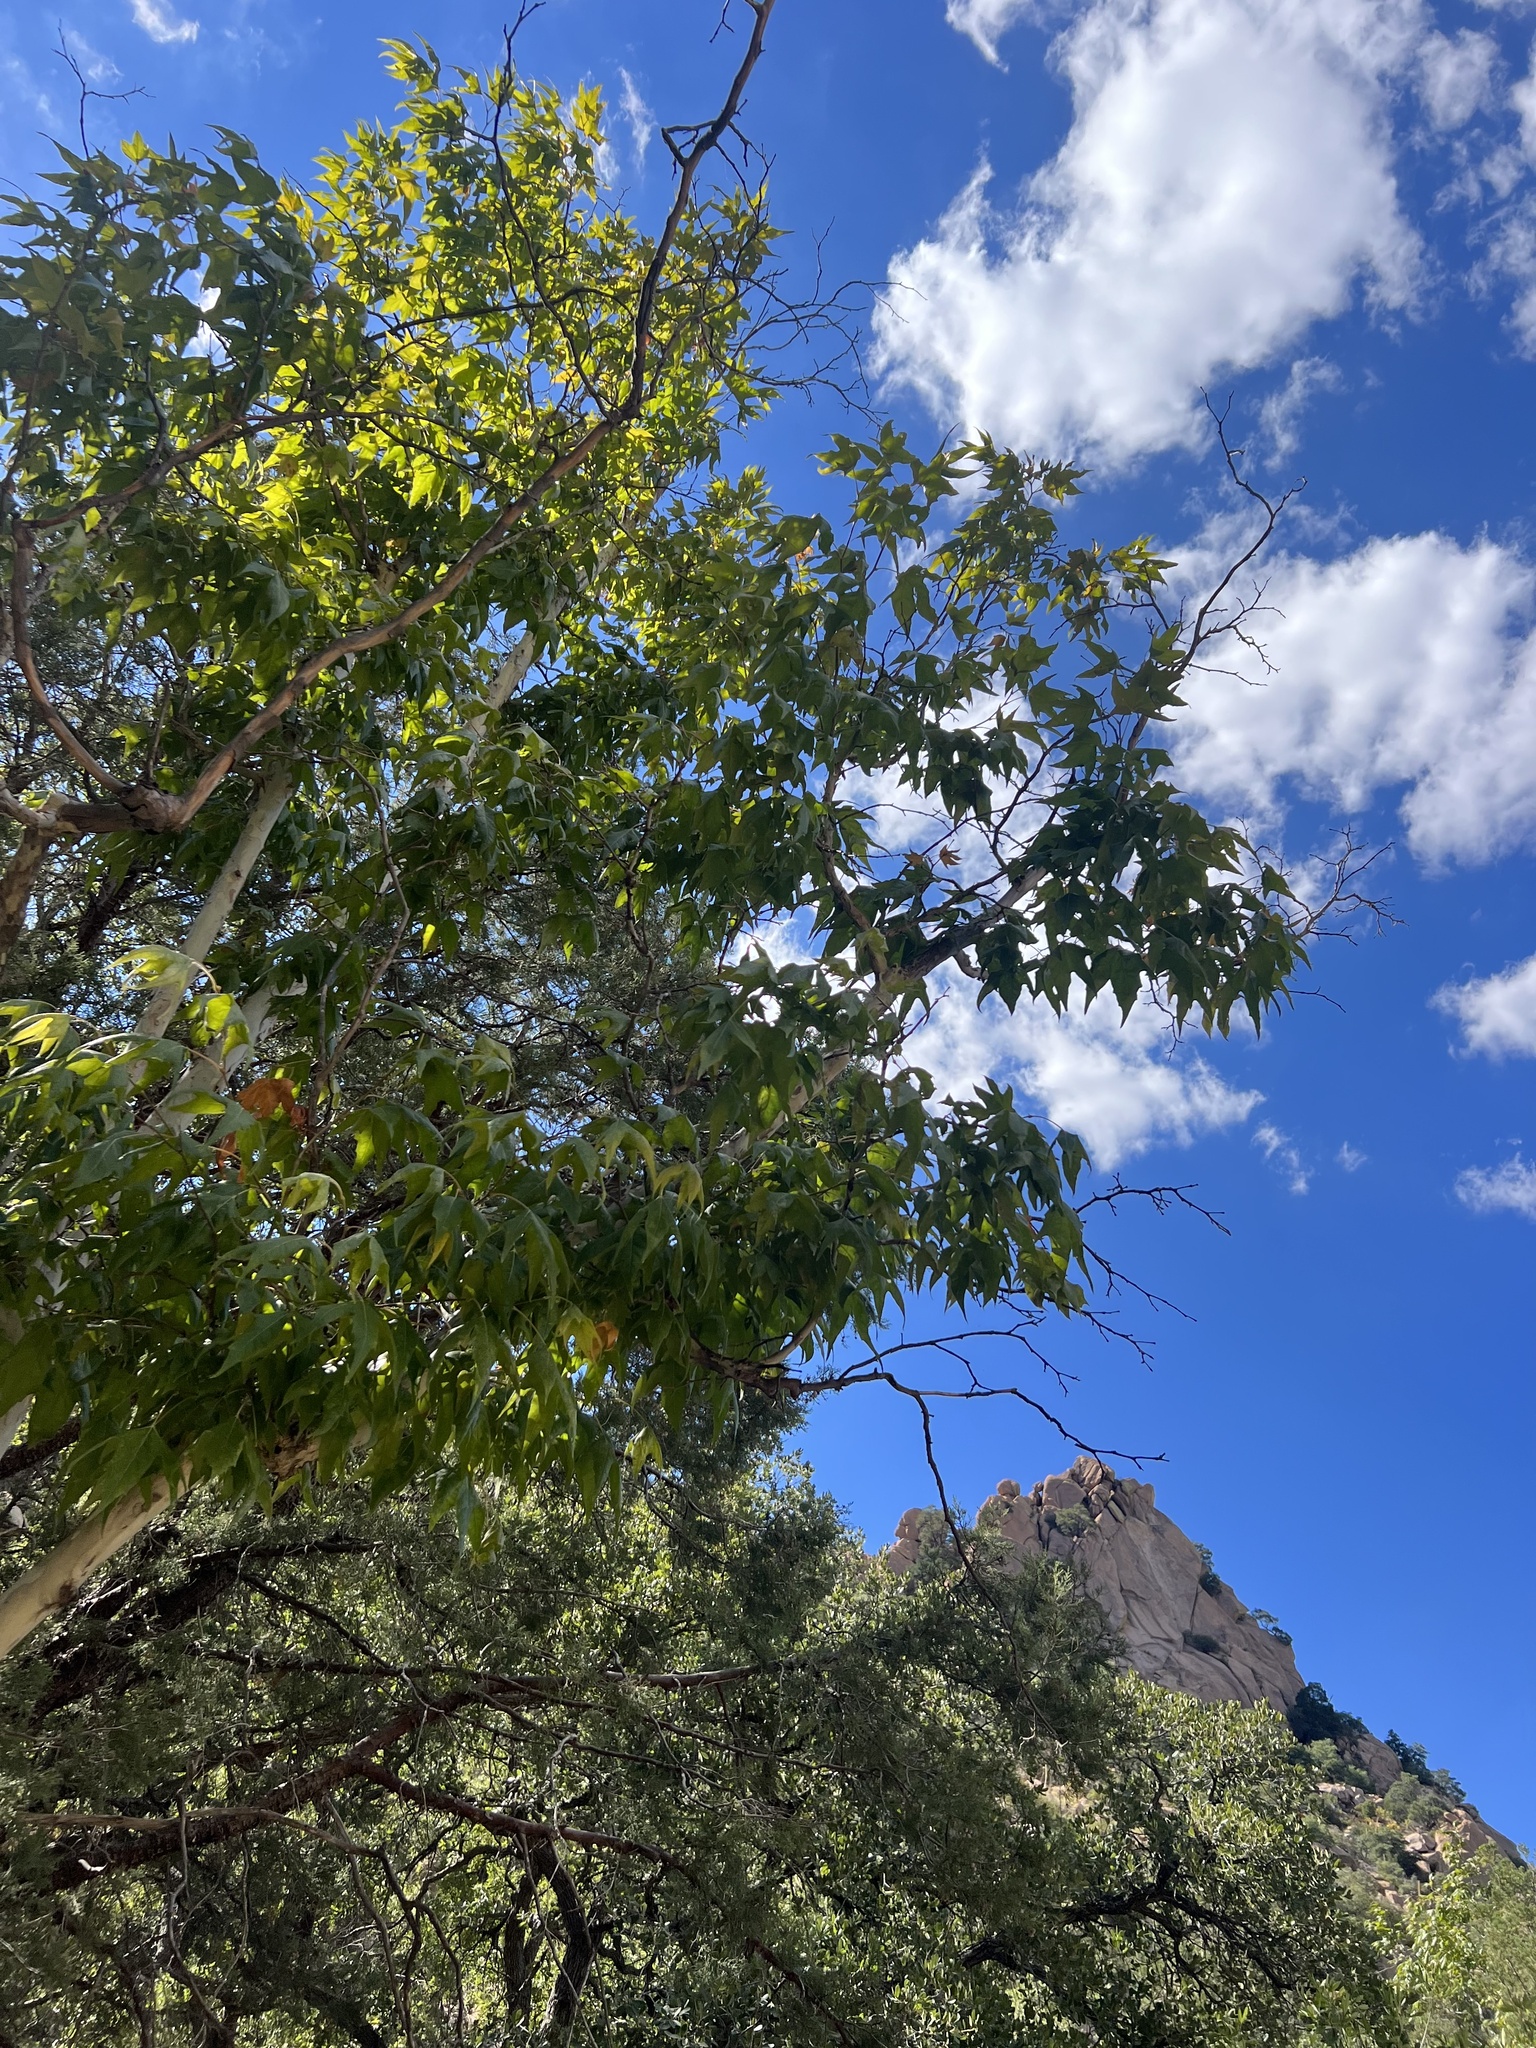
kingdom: Plantae
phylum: Tracheophyta
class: Magnoliopsida
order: Proteales
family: Platanaceae
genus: Platanus
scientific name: Platanus wrightii
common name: Arizona sycamore
